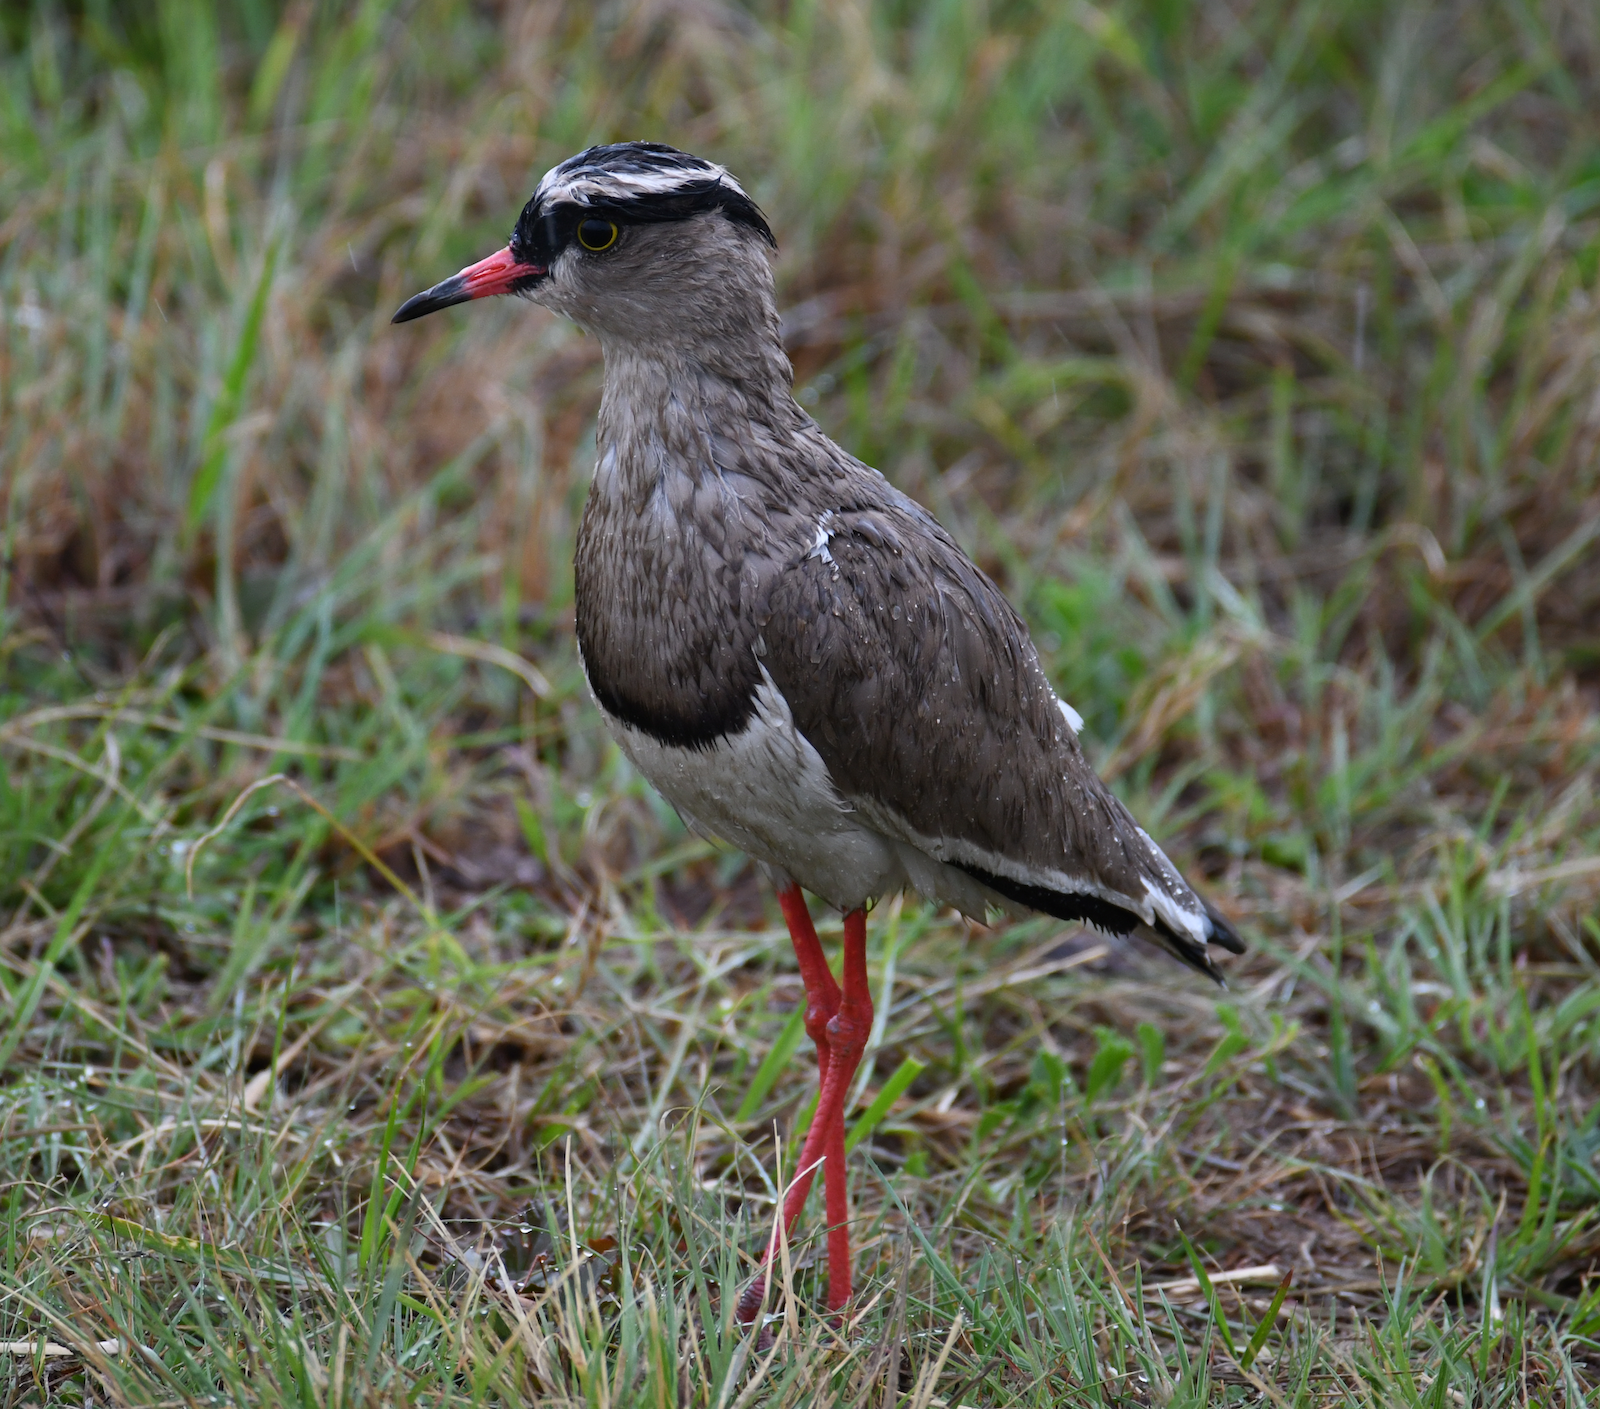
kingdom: Animalia
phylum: Chordata
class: Aves
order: Charadriiformes
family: Charadriidae
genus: Vanellus
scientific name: Vanellus coronatus
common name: Crowned lapwing
